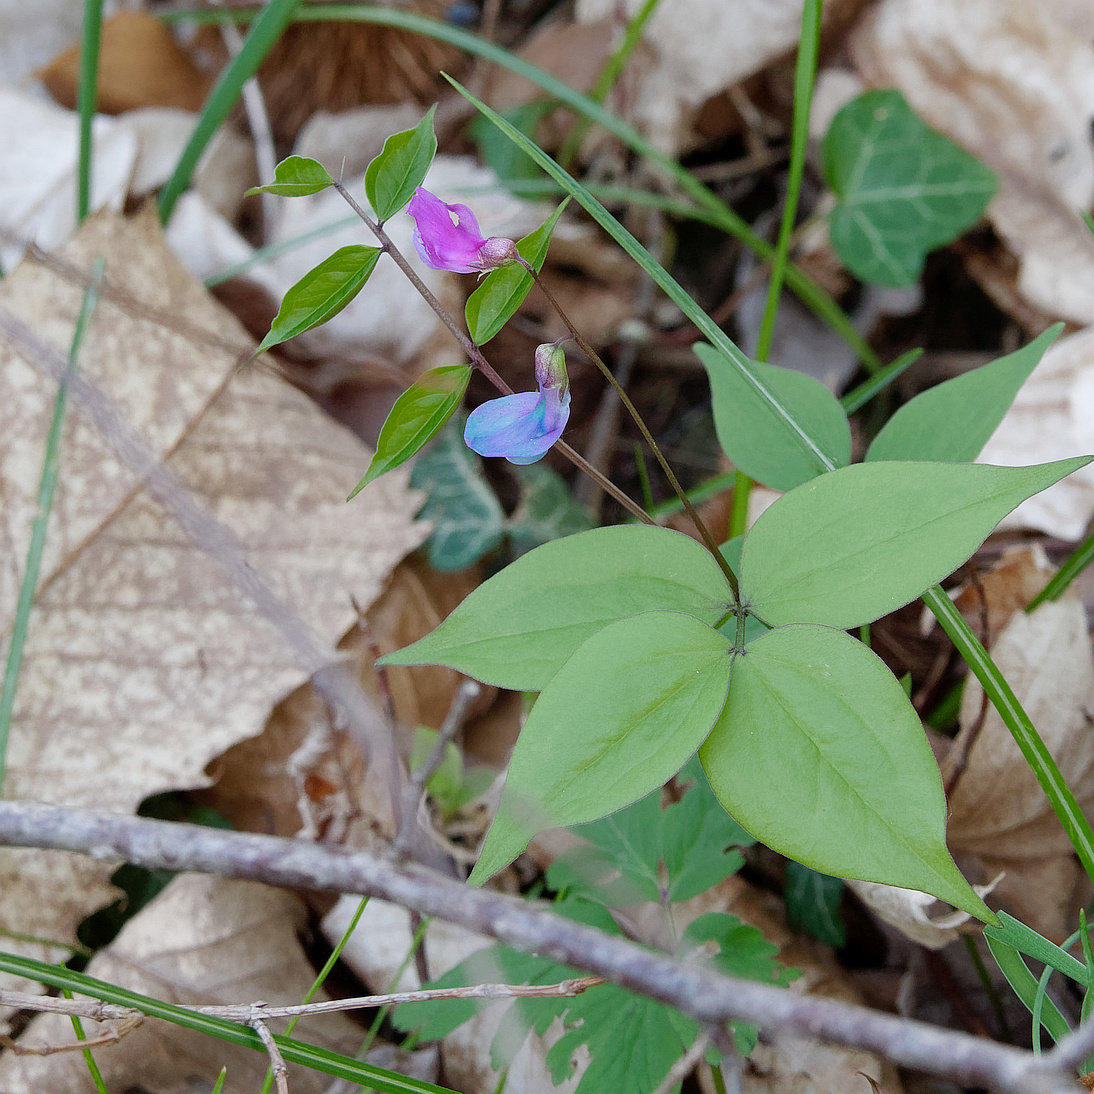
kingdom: Plantae
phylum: Tracheophyta
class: Magnoliopsida
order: Fabales
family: Fabaceae
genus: Lathyrus
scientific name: Lathyrus vernus
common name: Spring pea
